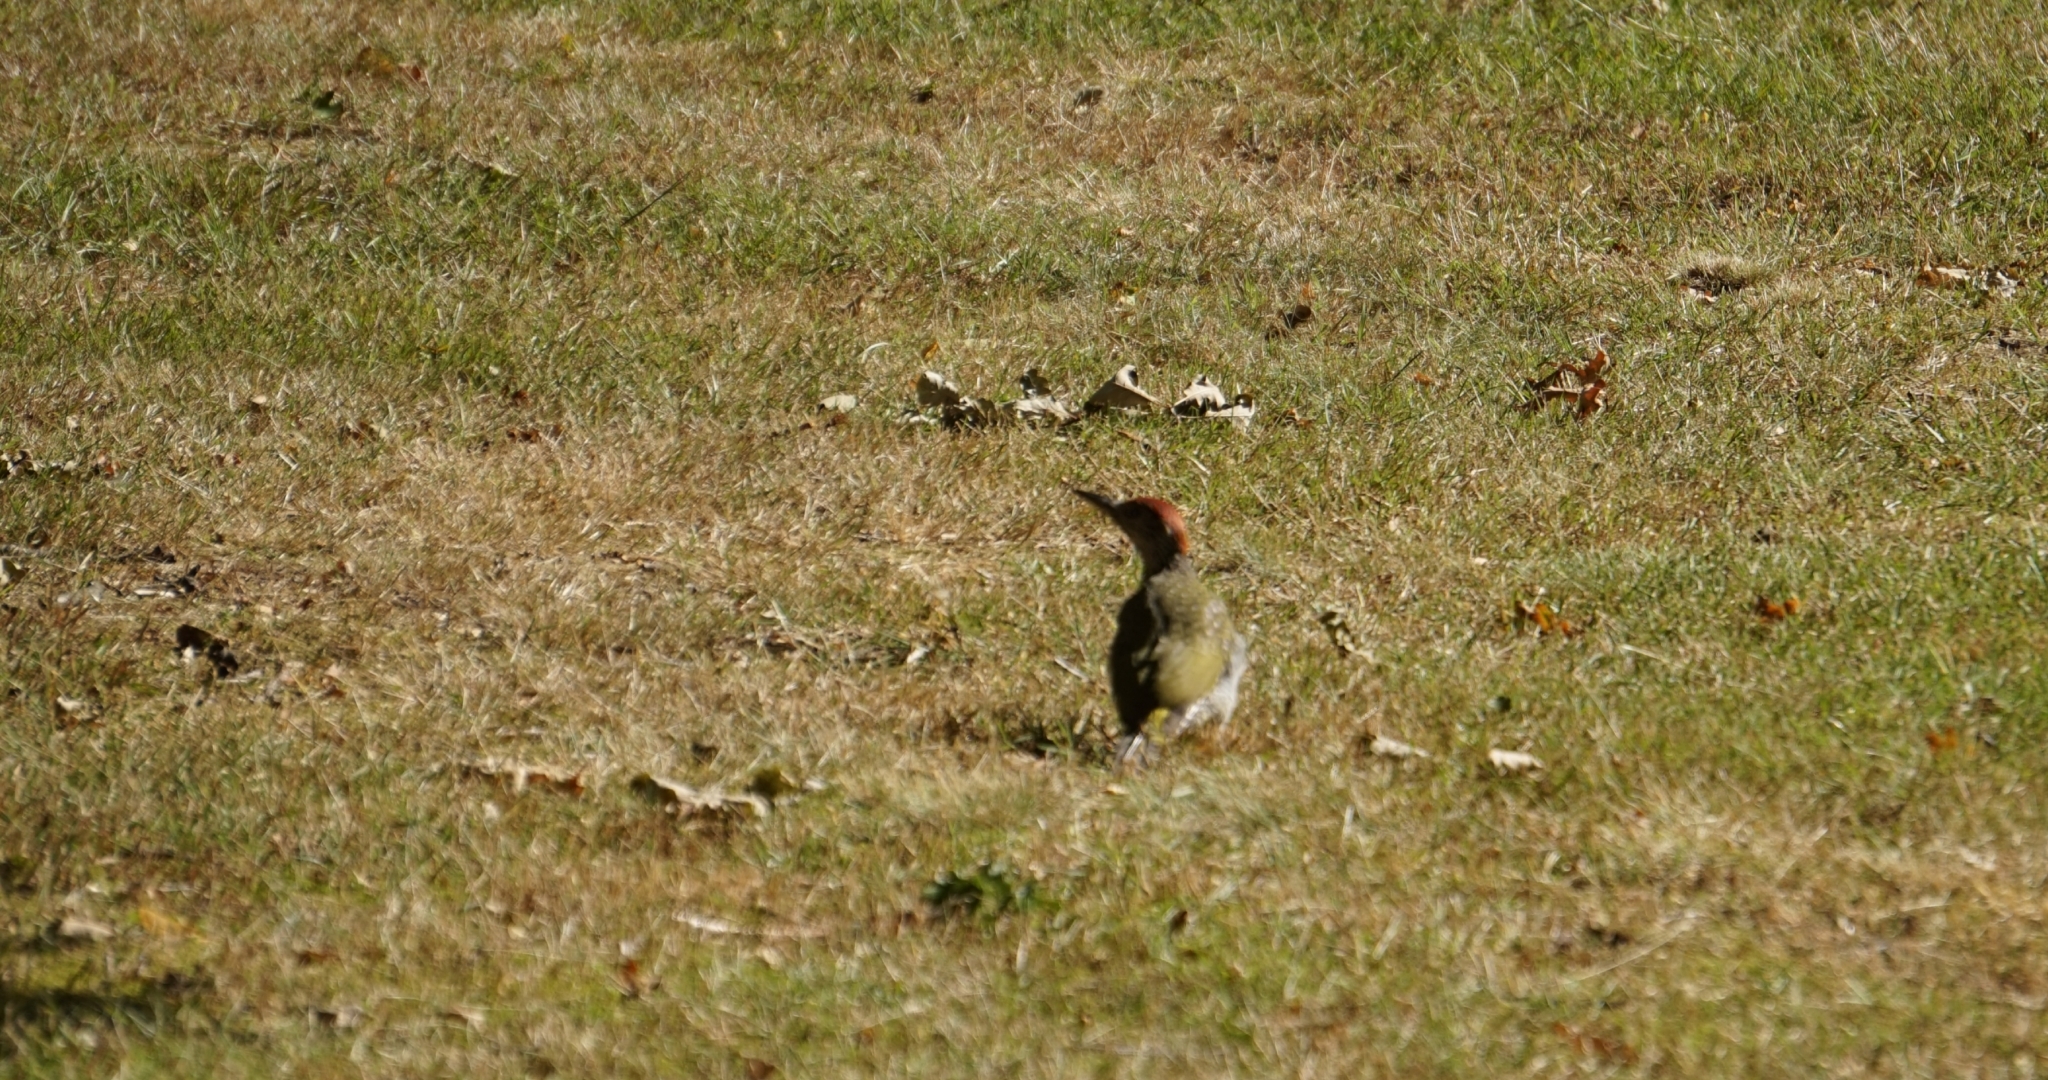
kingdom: Animalia
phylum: Chordata
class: Aves
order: Piciformes
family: Picidae
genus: Picus
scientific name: Picus viridis
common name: European green woodpecker
